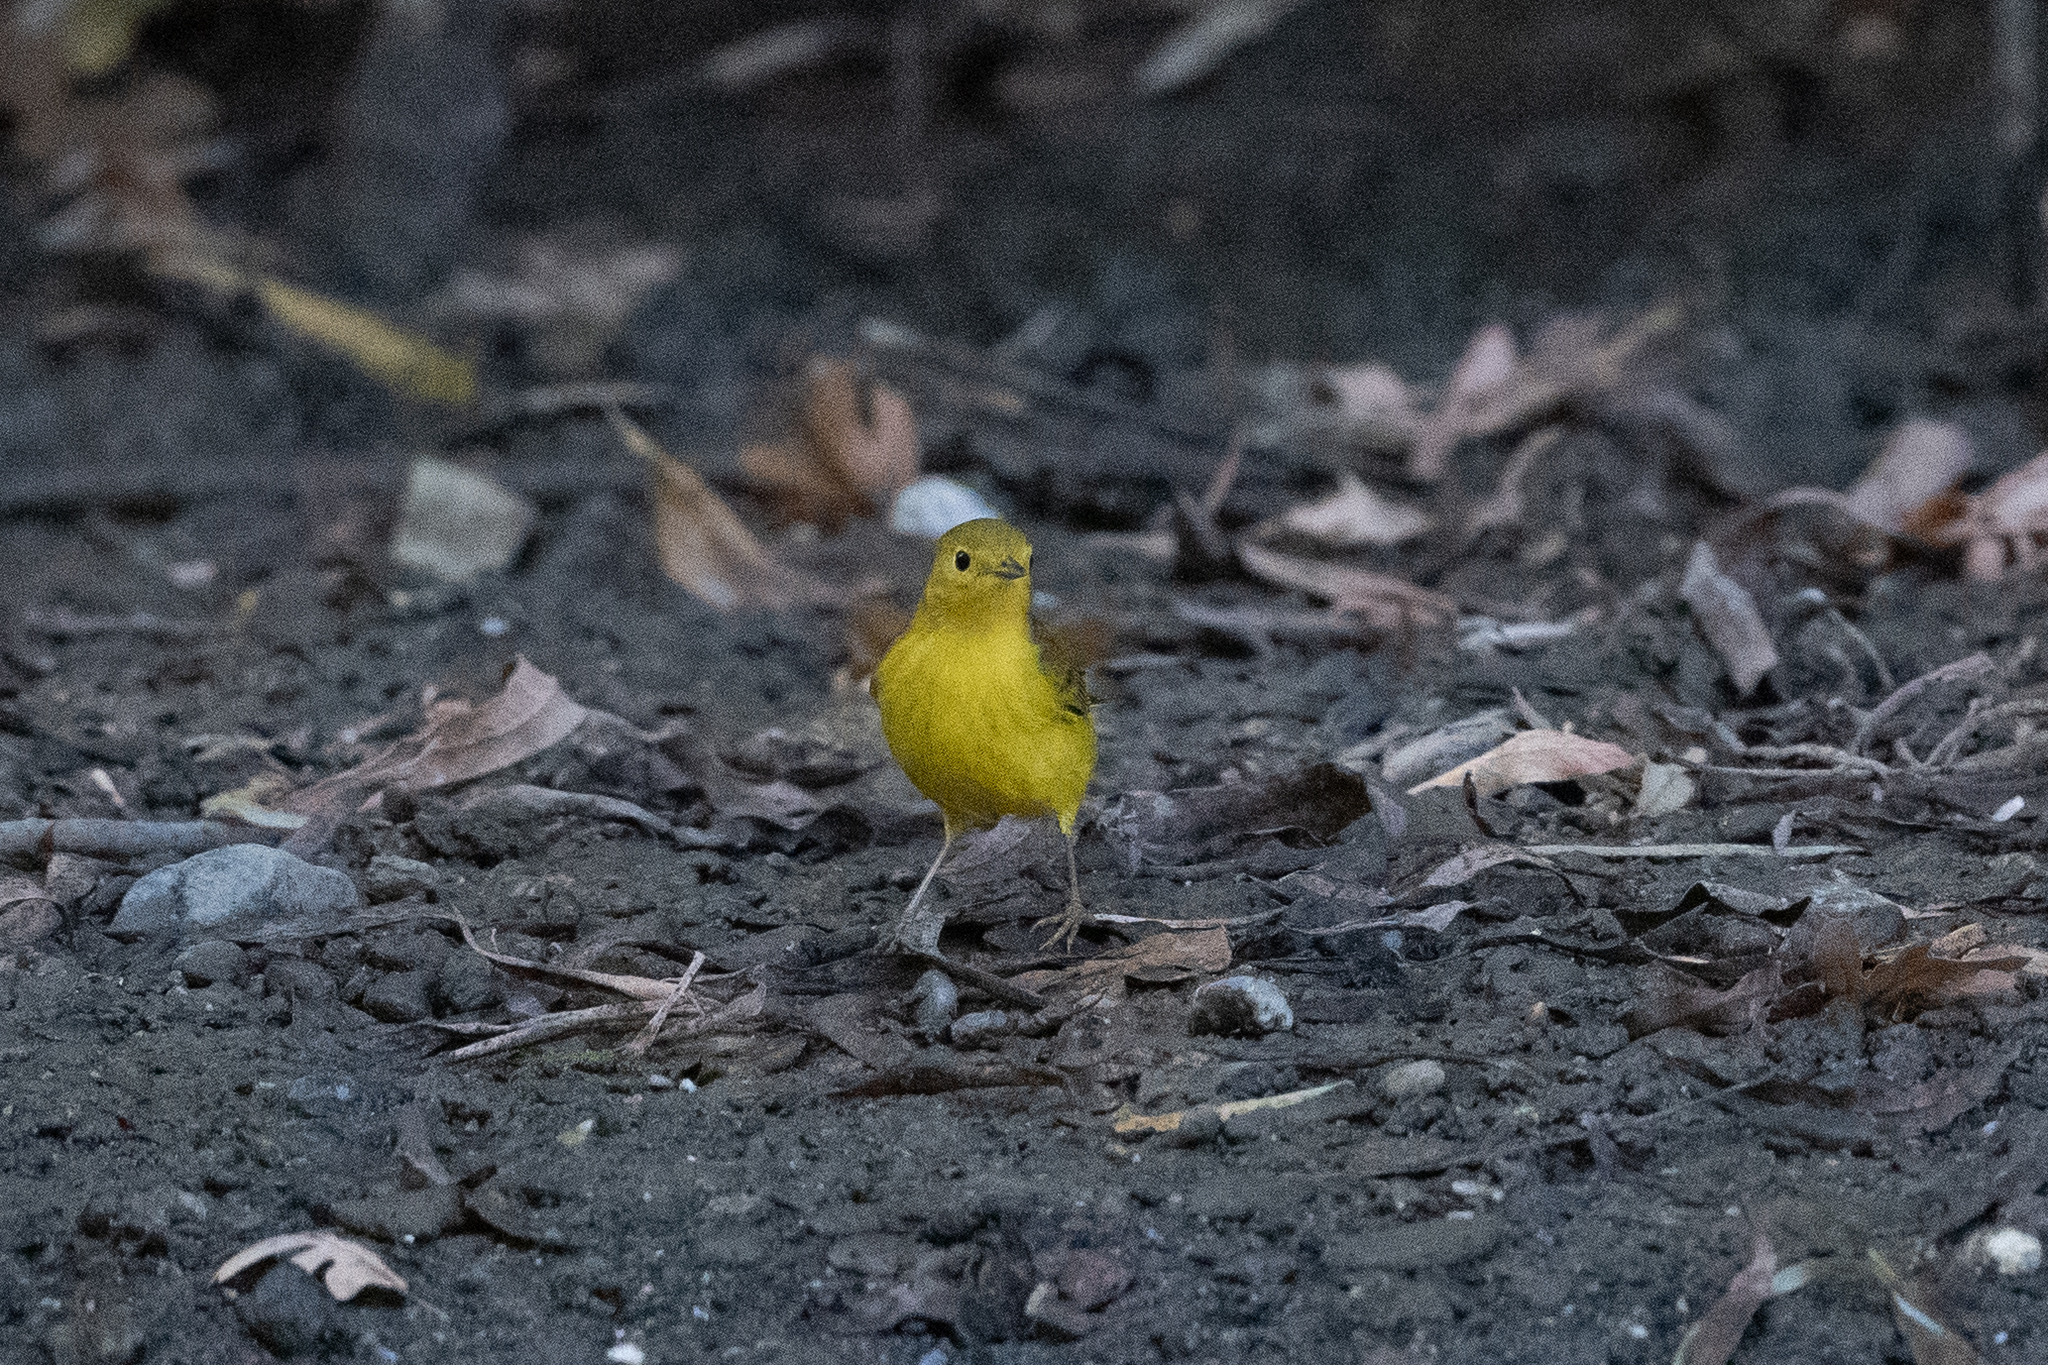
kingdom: Animalia
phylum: Chordata
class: Aves
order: Passeriformes
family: Parulidae
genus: Setophaga
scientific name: Setophaga petechia
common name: Yellow warbler
